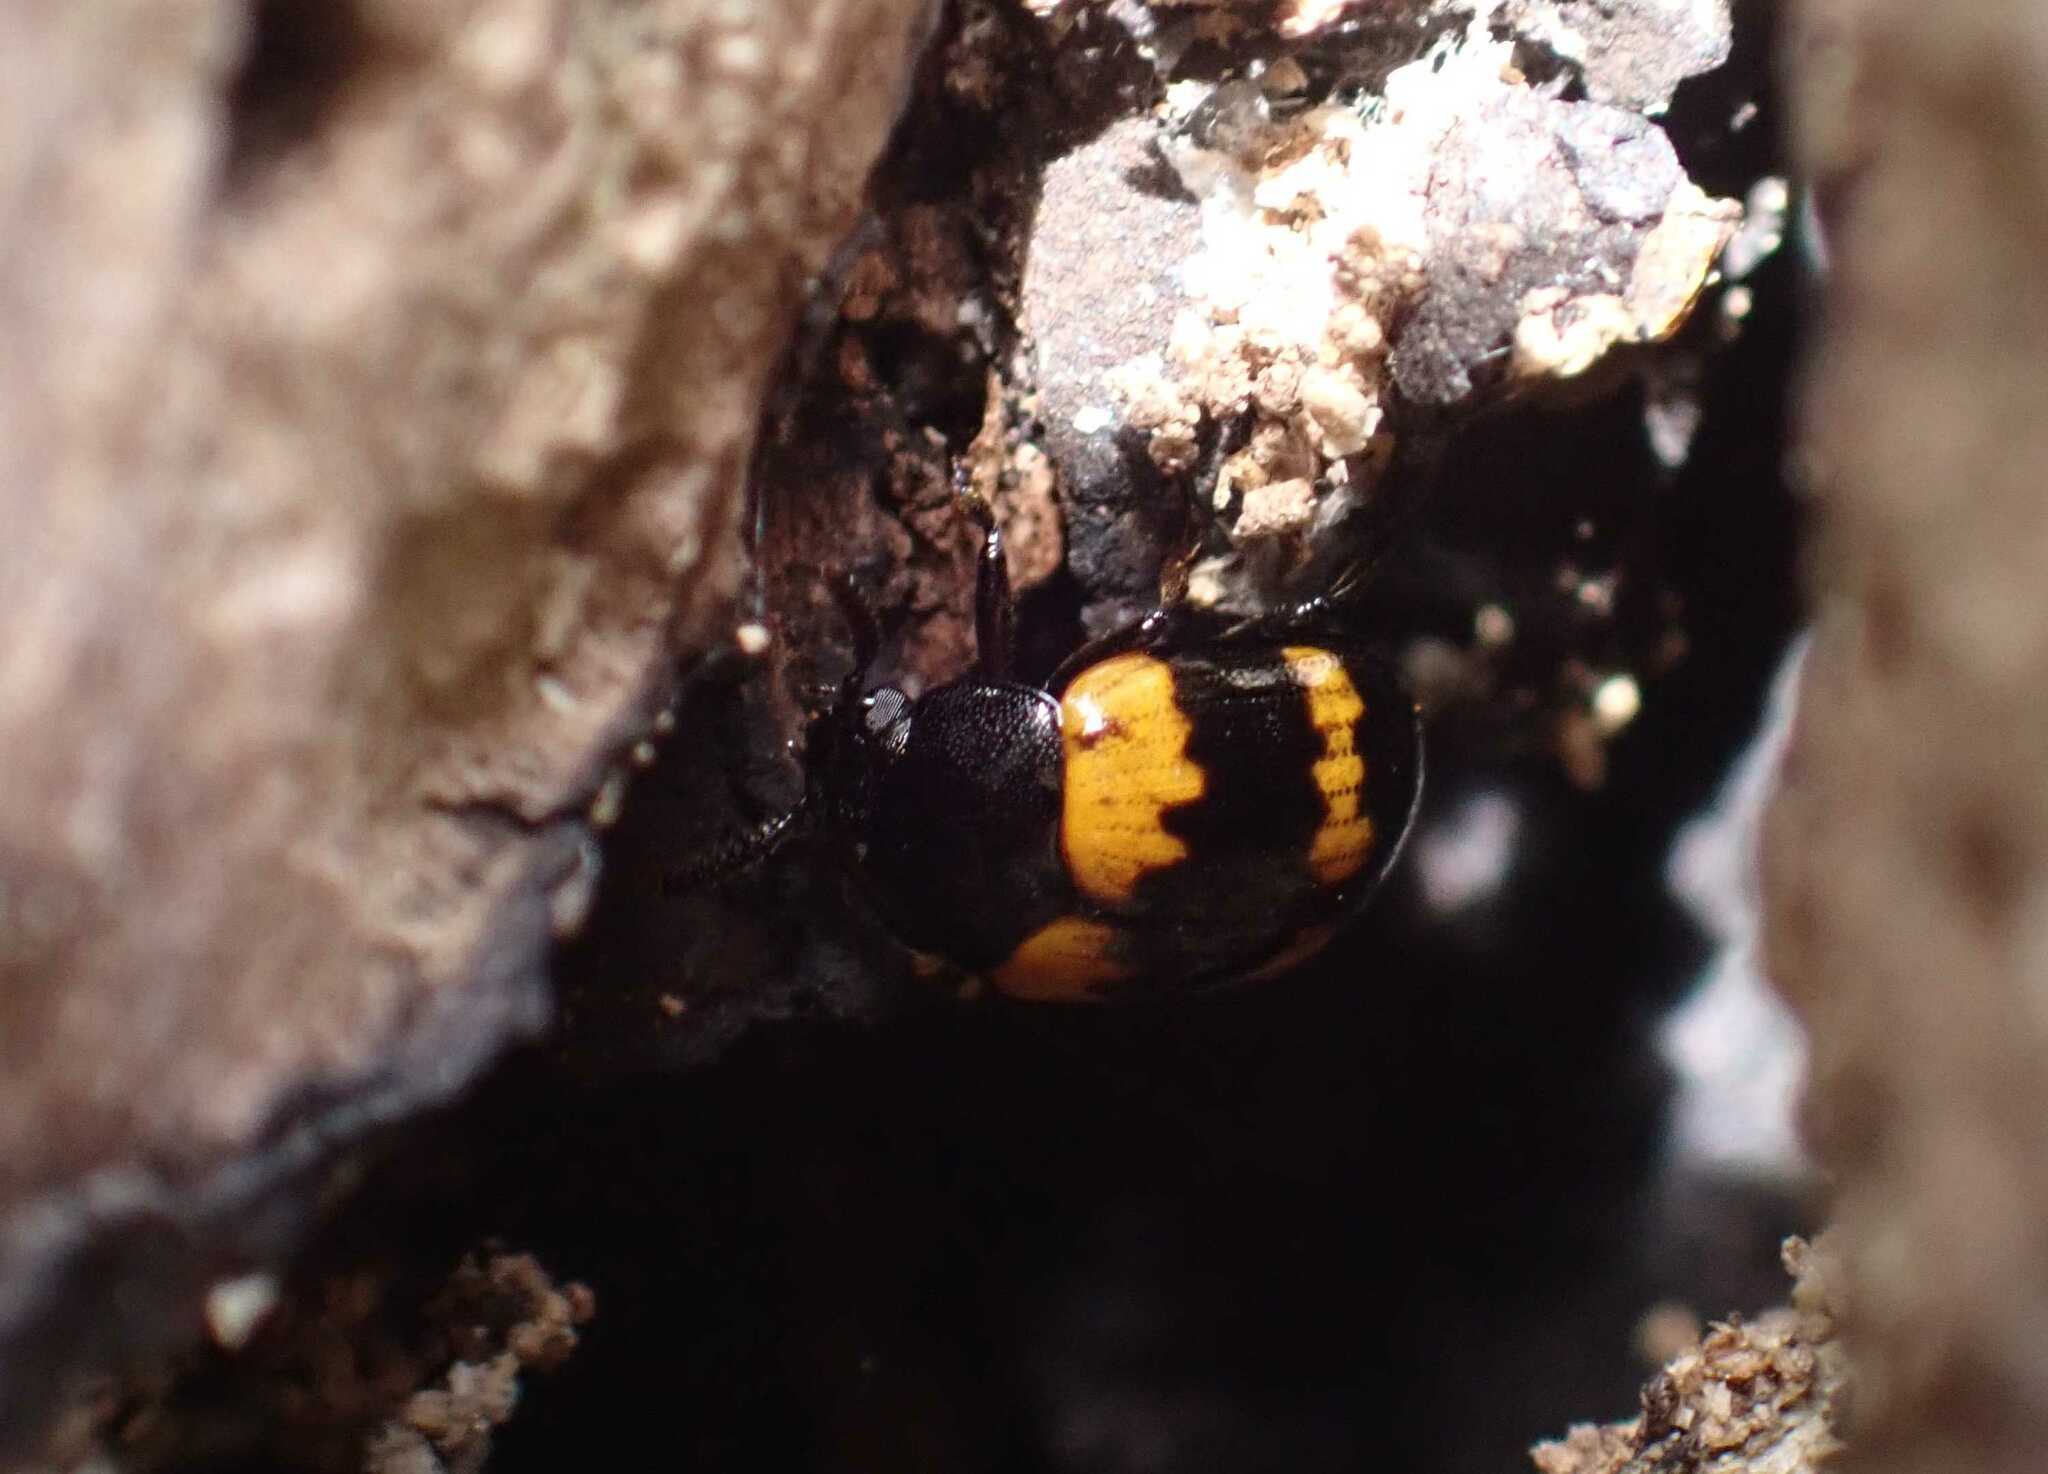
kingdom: Animalia
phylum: Arthropoda
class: Insecta
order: Coleoptera
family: Tenebrionidae
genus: Diaperis
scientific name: Diaperis boleti
